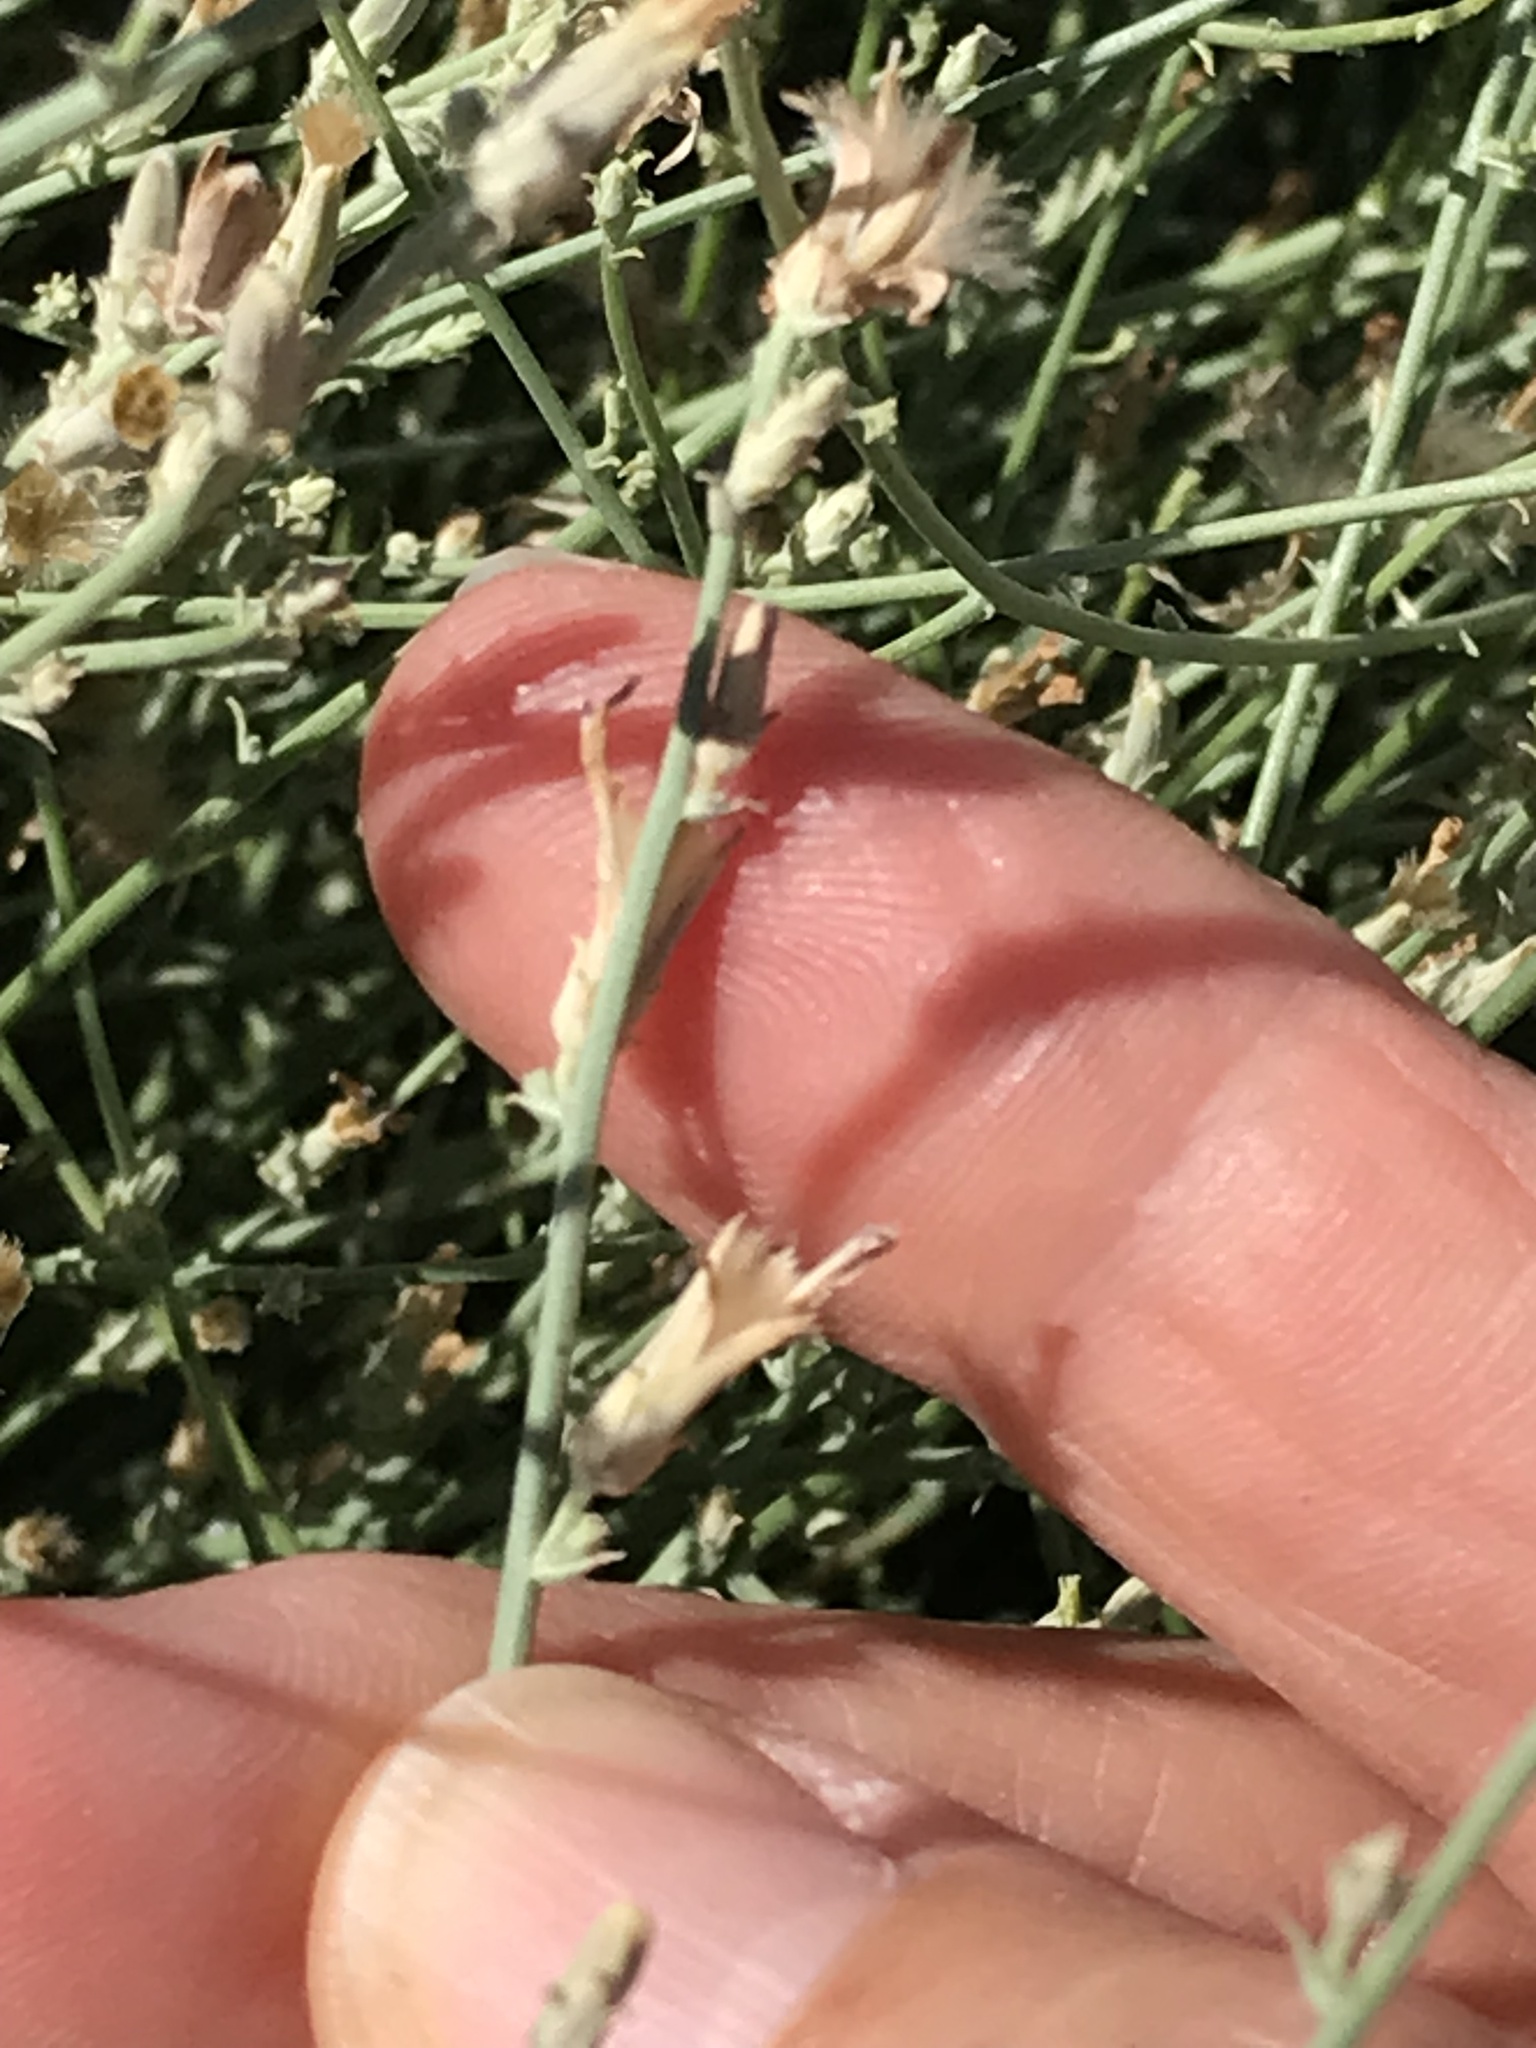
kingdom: Plantae
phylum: Tracheophyta
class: Magnoliopsida
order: Asterales
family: Asteraceae
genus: Stephanomeria
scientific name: Stephanomeria pauciflora
